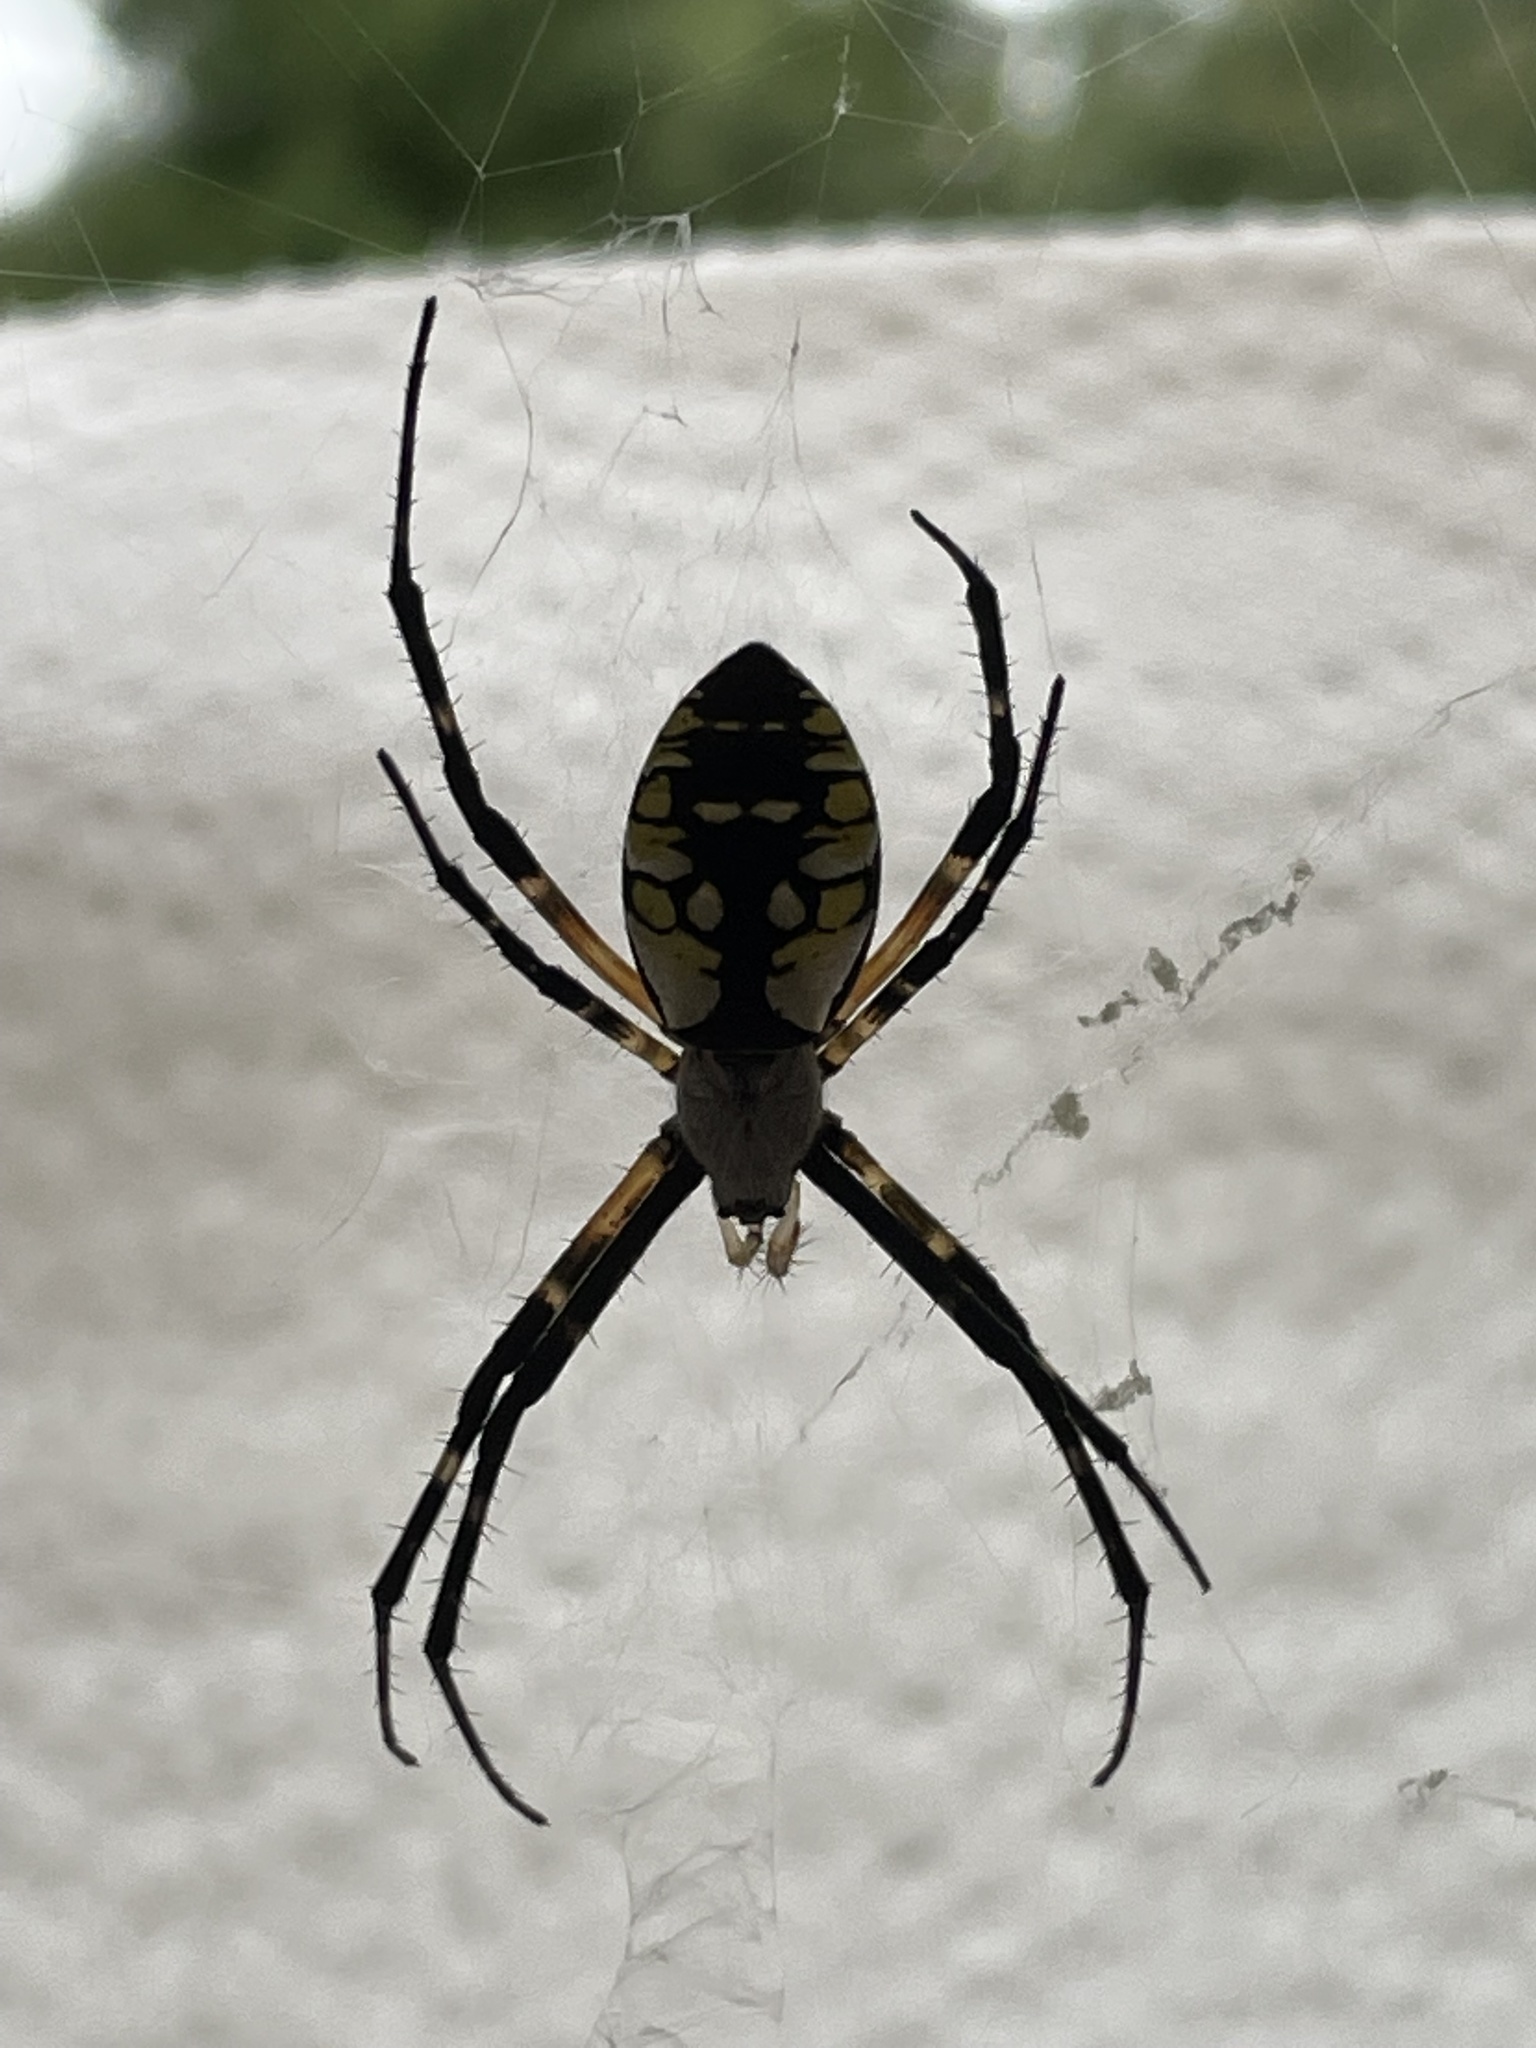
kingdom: Animalia
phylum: Arthropoda
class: Arachnida
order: Araneae
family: Araneidae
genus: Argiope
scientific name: Argiope aurantia
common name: Orb weavers
